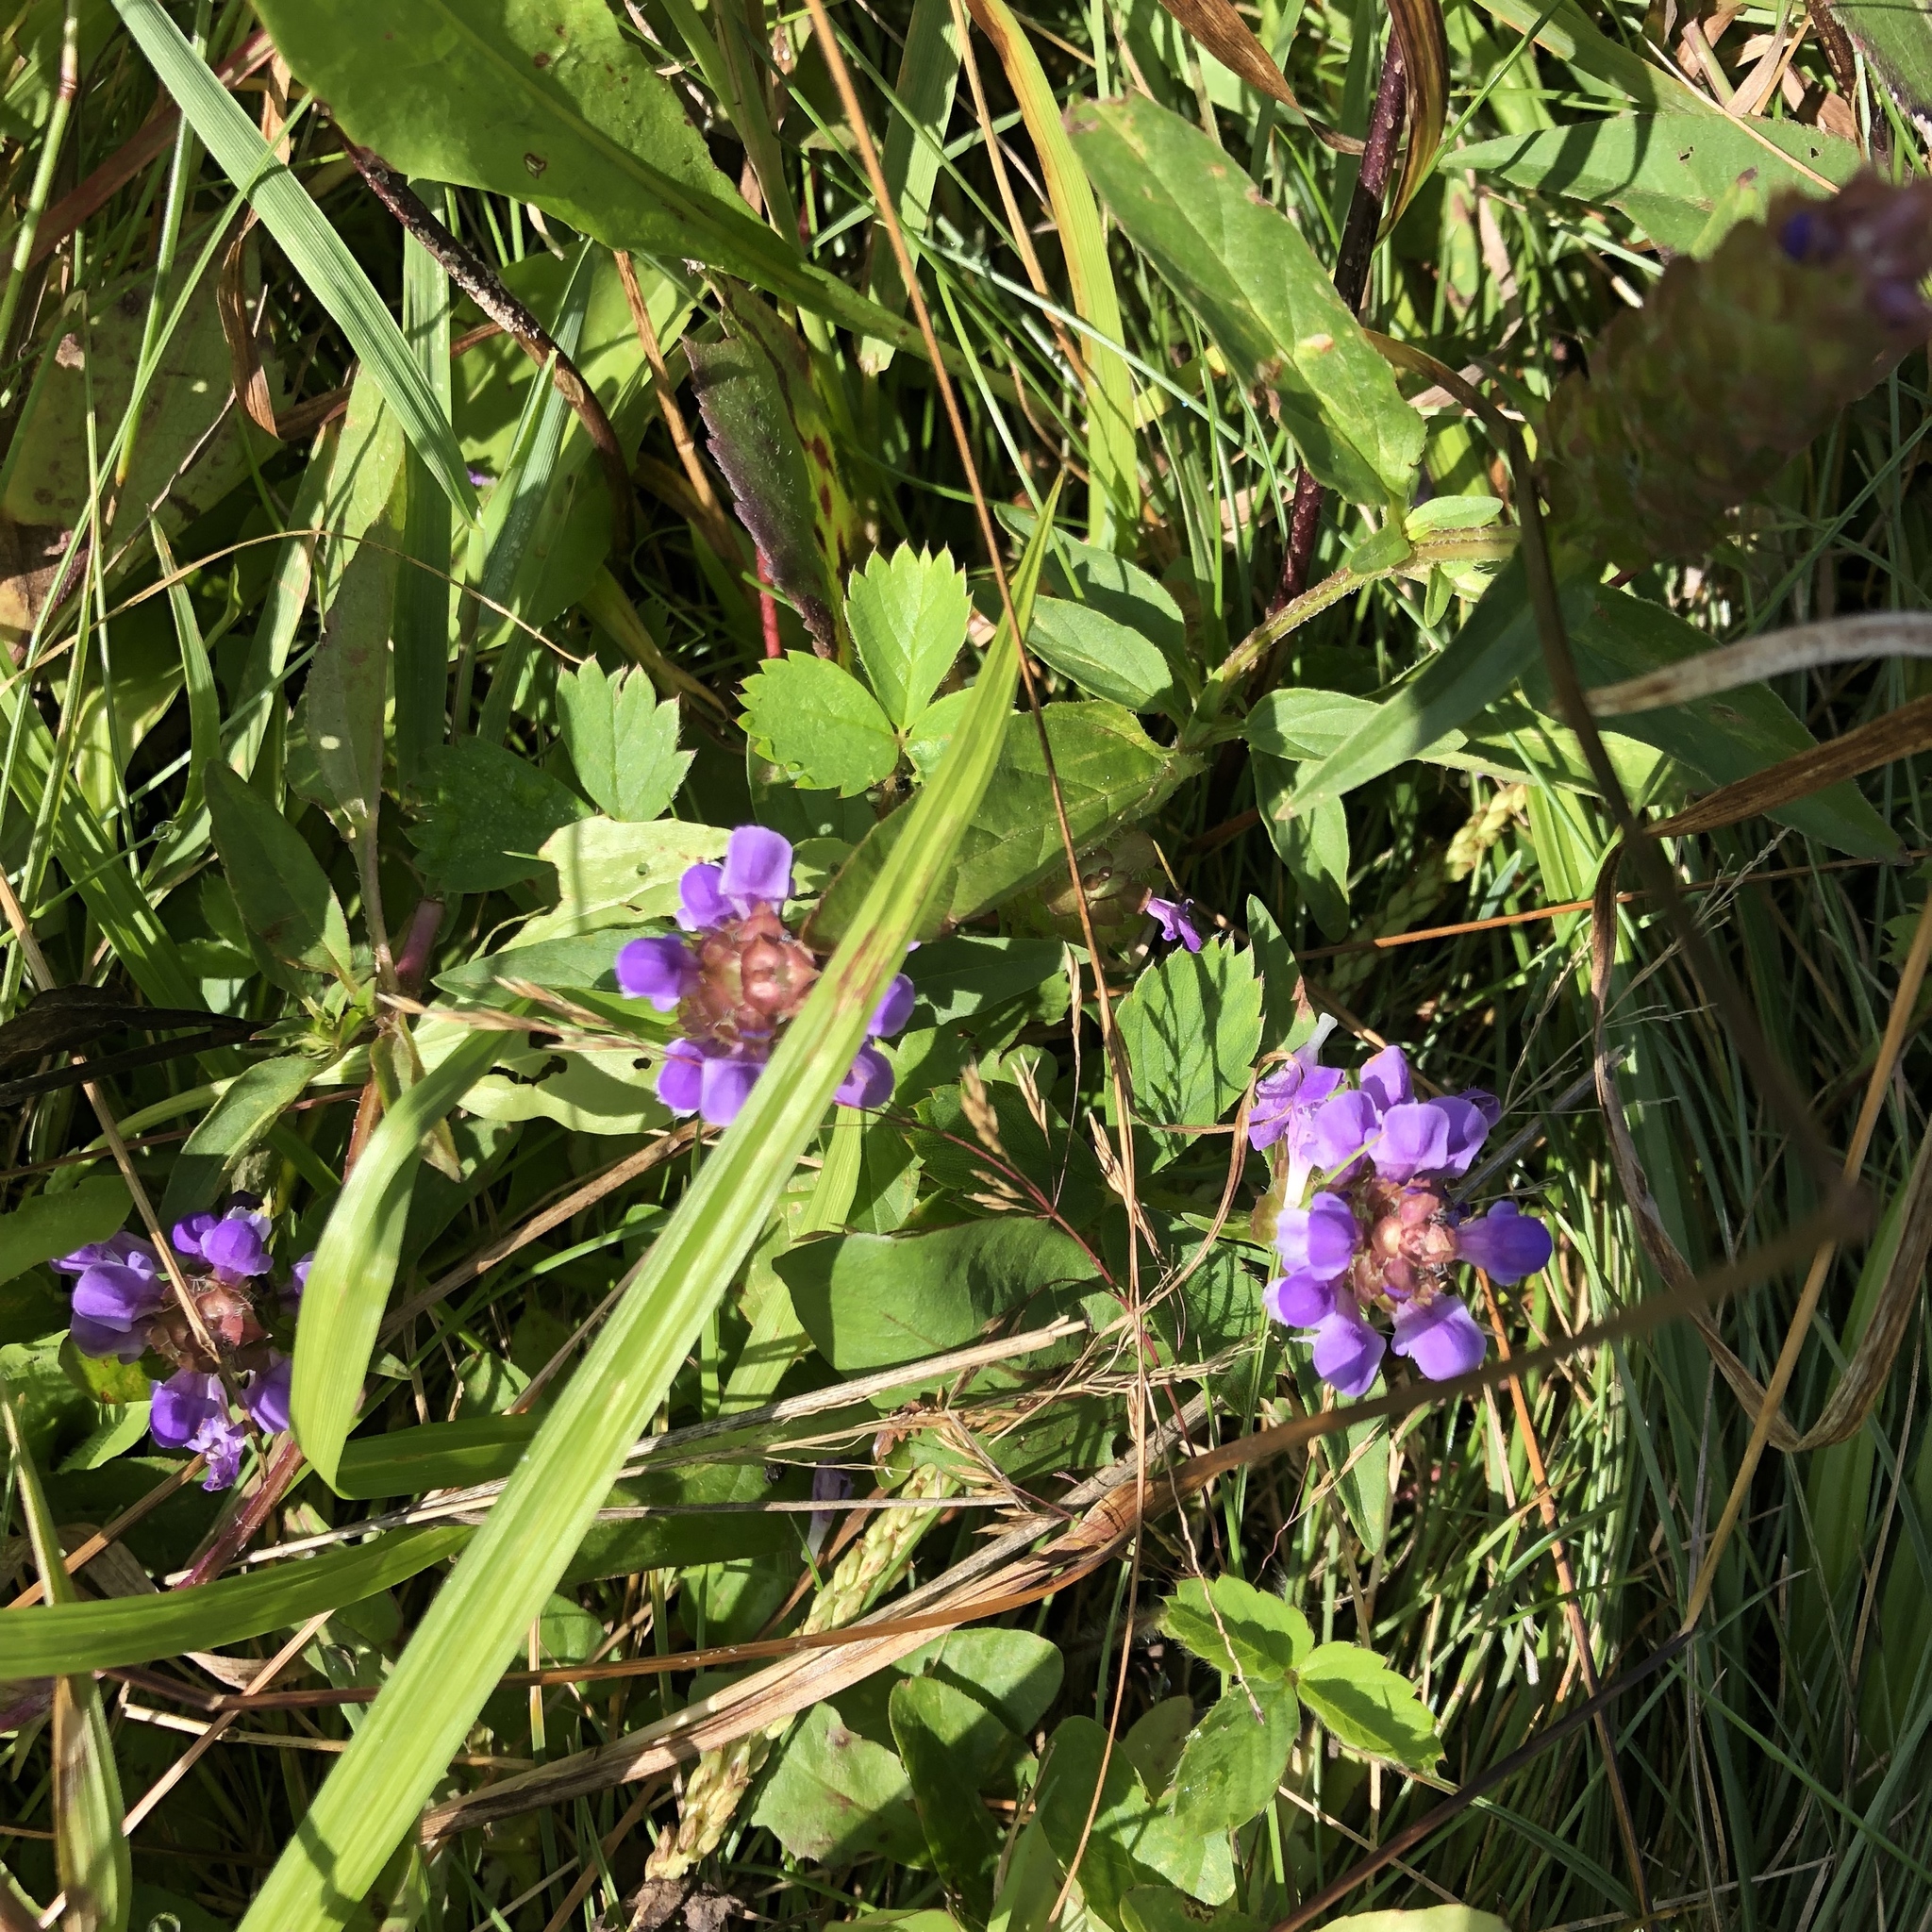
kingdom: Plantae
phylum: Tracheophyta
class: Magnoliopsida
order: Lamiales
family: Lamiaceae
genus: Prunella
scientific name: Prunella vulgaris
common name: Heal-all
